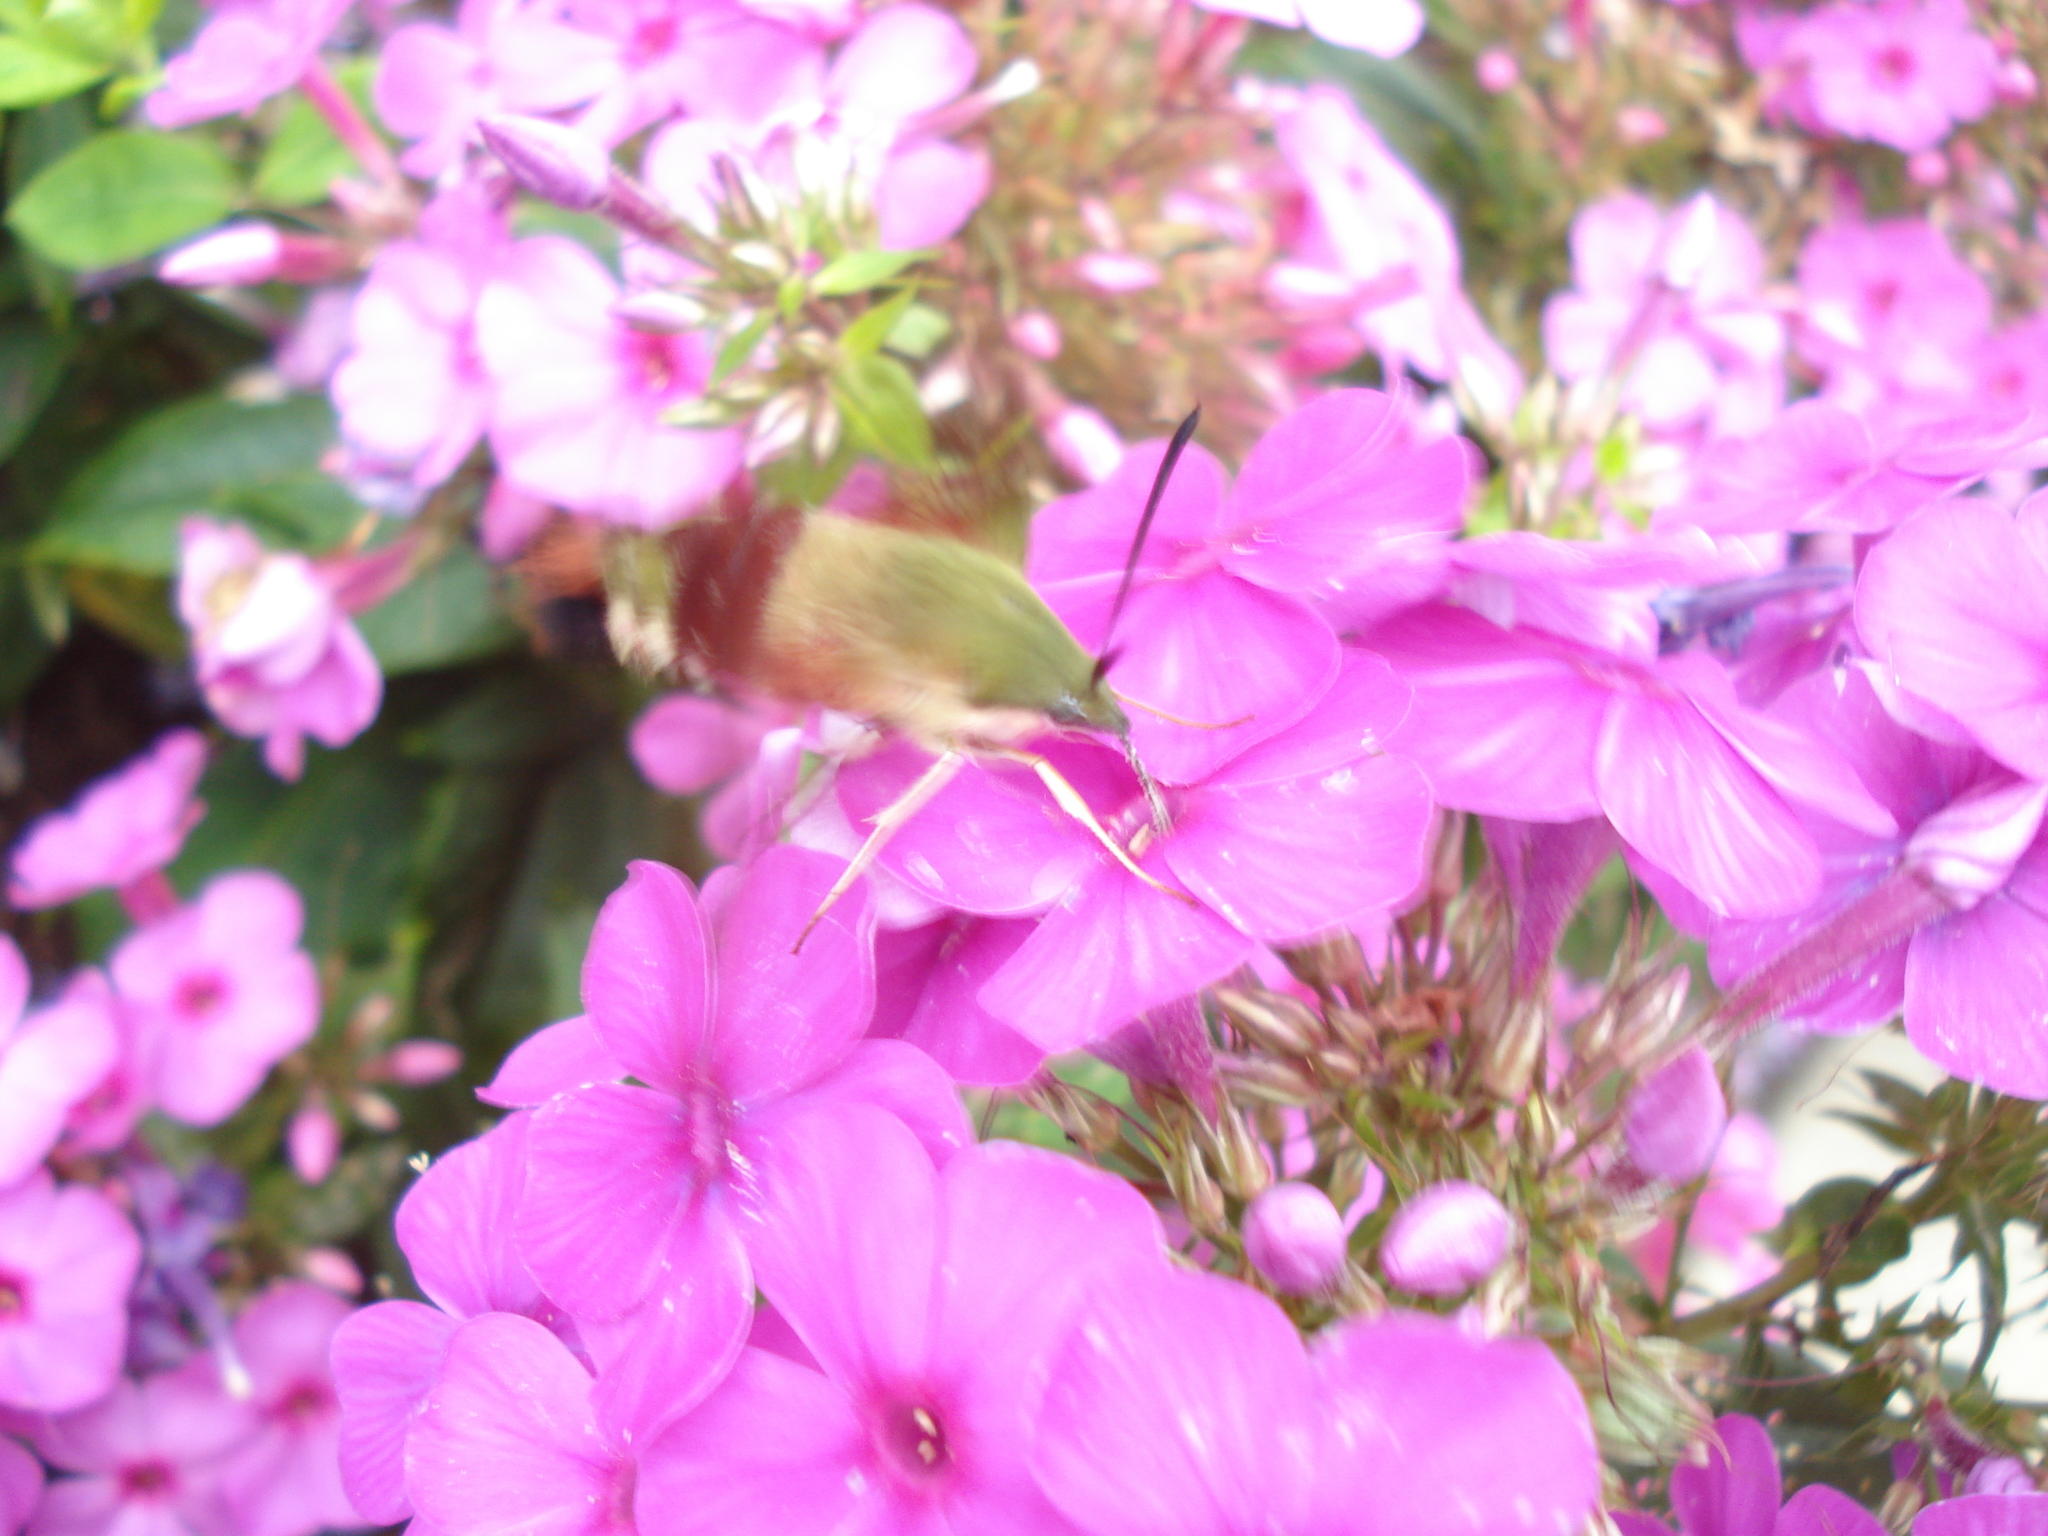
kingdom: Animalia
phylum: Arthropoda
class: Insecta
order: Lepidoptera
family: Sphingidae
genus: Hemaris
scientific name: Hemaris thysbe
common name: Common clear-wing
